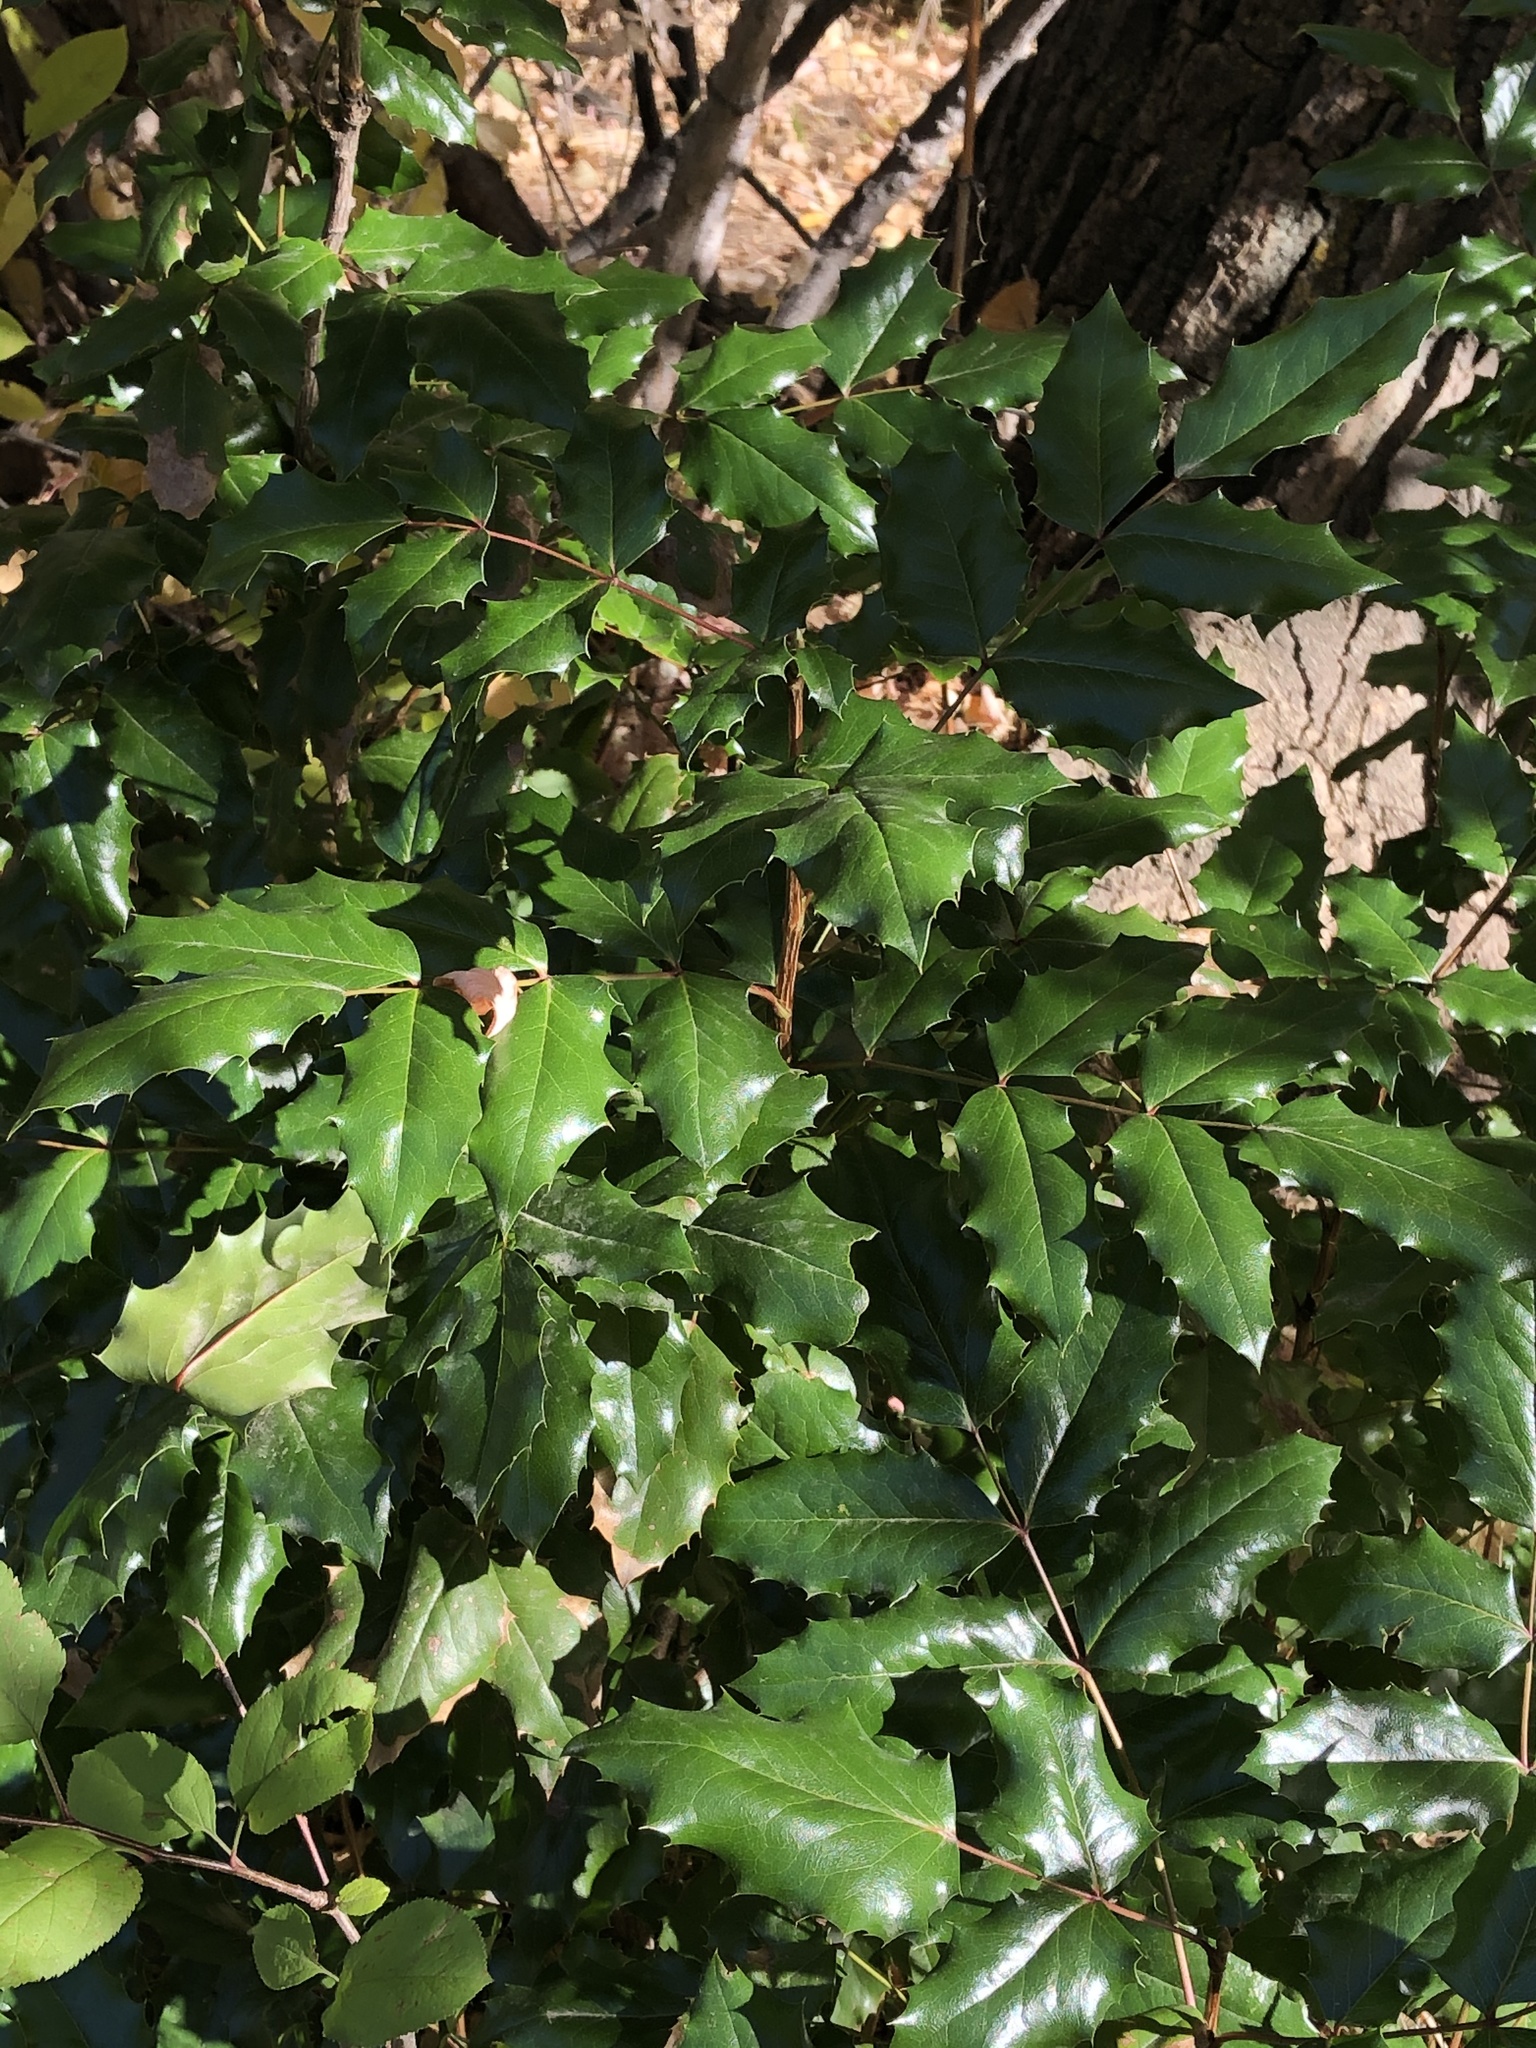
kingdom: Plantae
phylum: Tracheophyta
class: Magnoliopsida
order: Ranunculales
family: Berberidaceae
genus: Mahonia
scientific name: Mahonia aquifolium
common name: Oregon-grape
